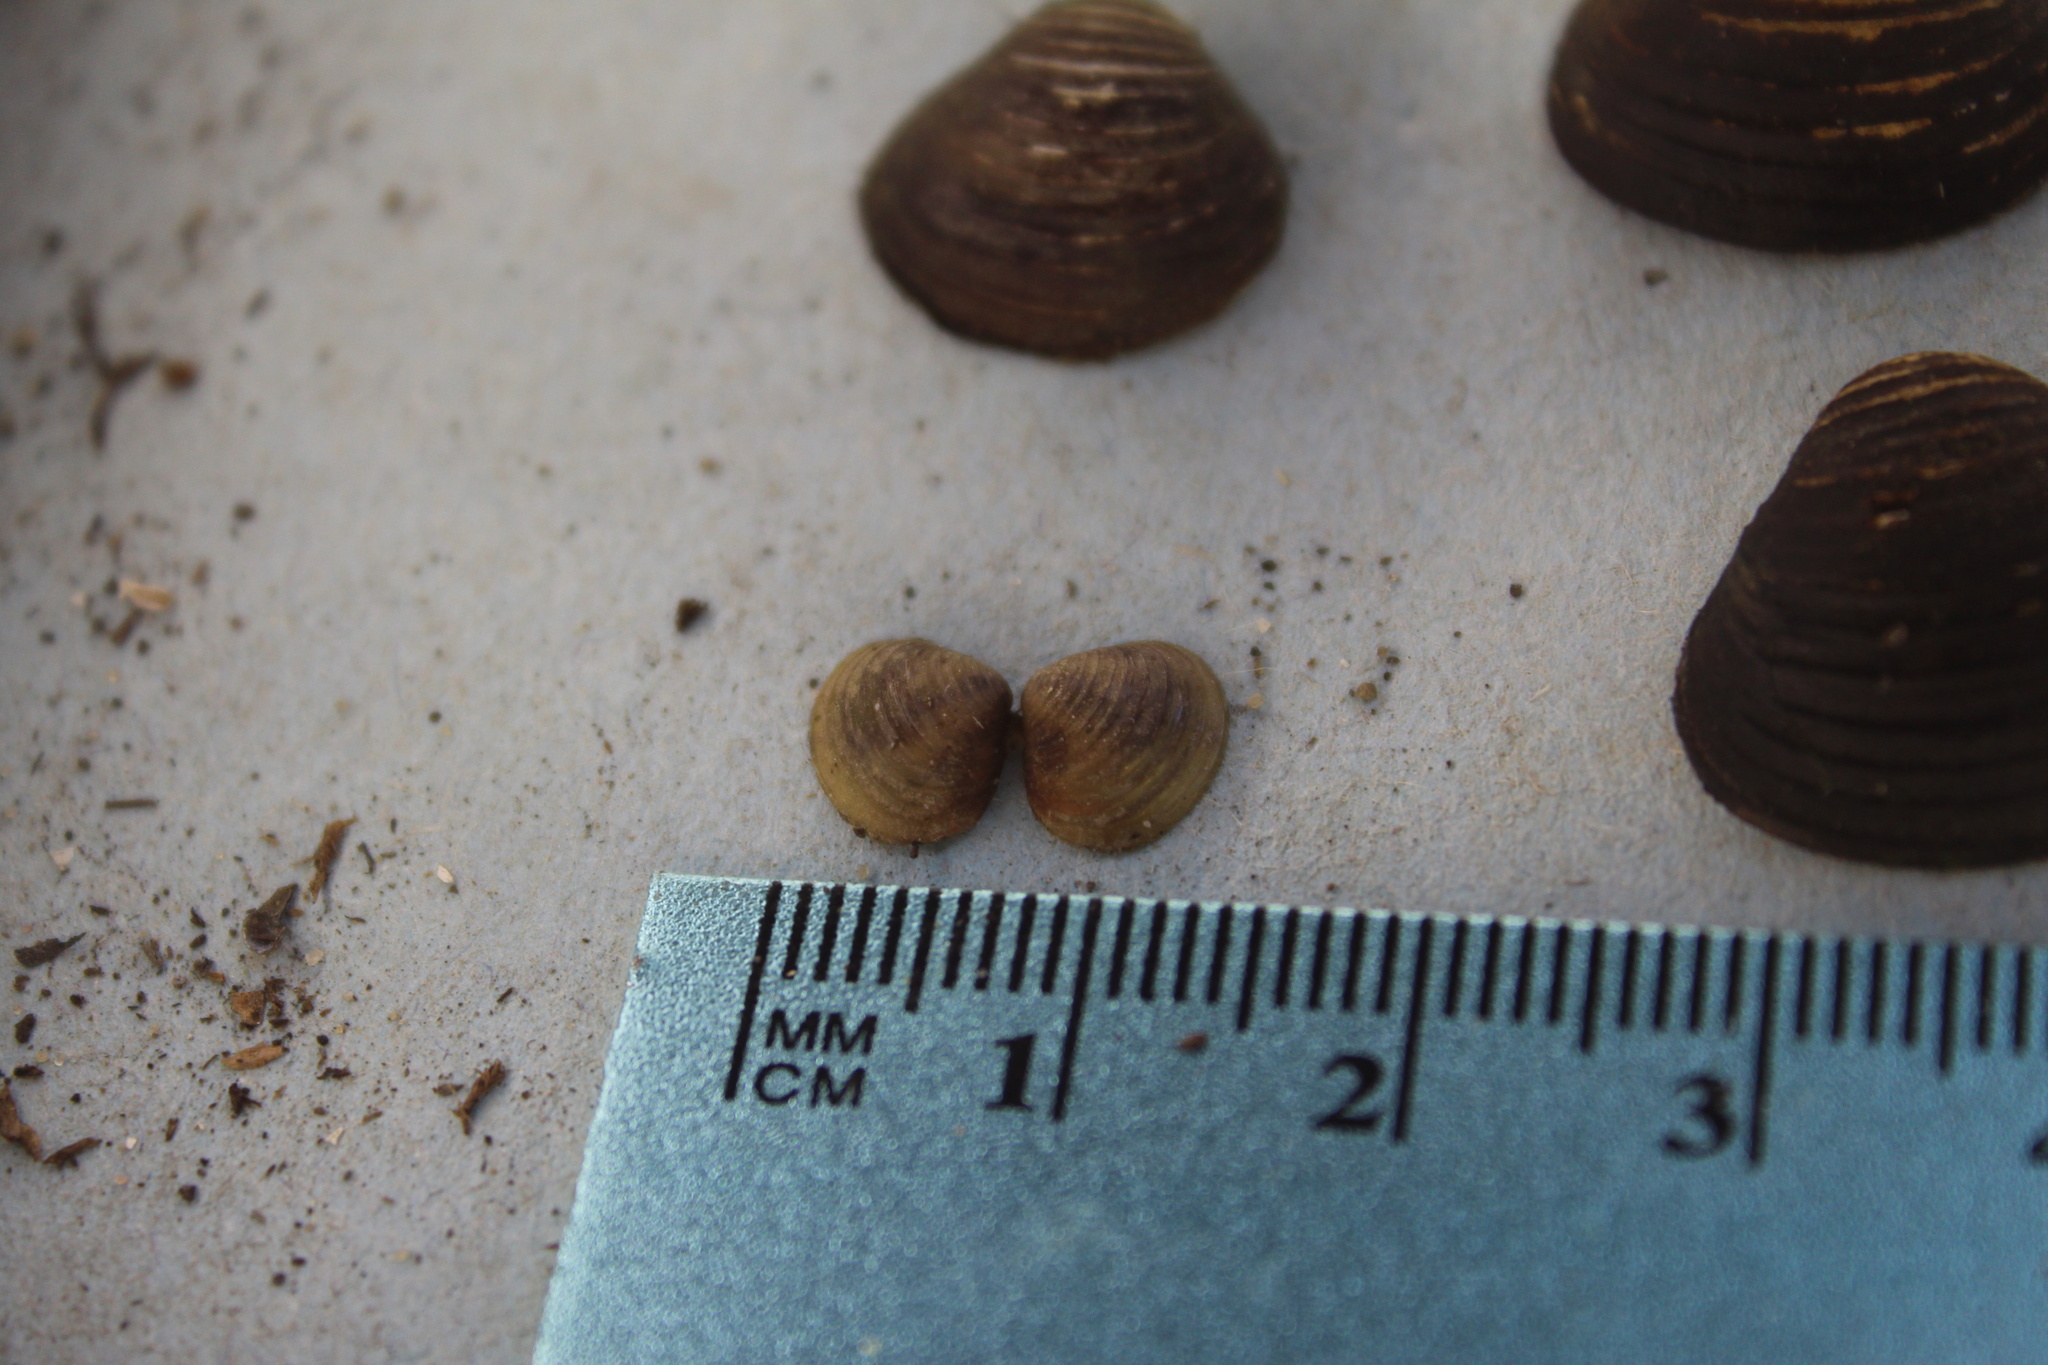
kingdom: Animalia
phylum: Mollusca
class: Bivalvia
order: Venerida
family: Cyrenidae
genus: Corbicula
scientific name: Corbicula fluminea
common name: Asian clam
